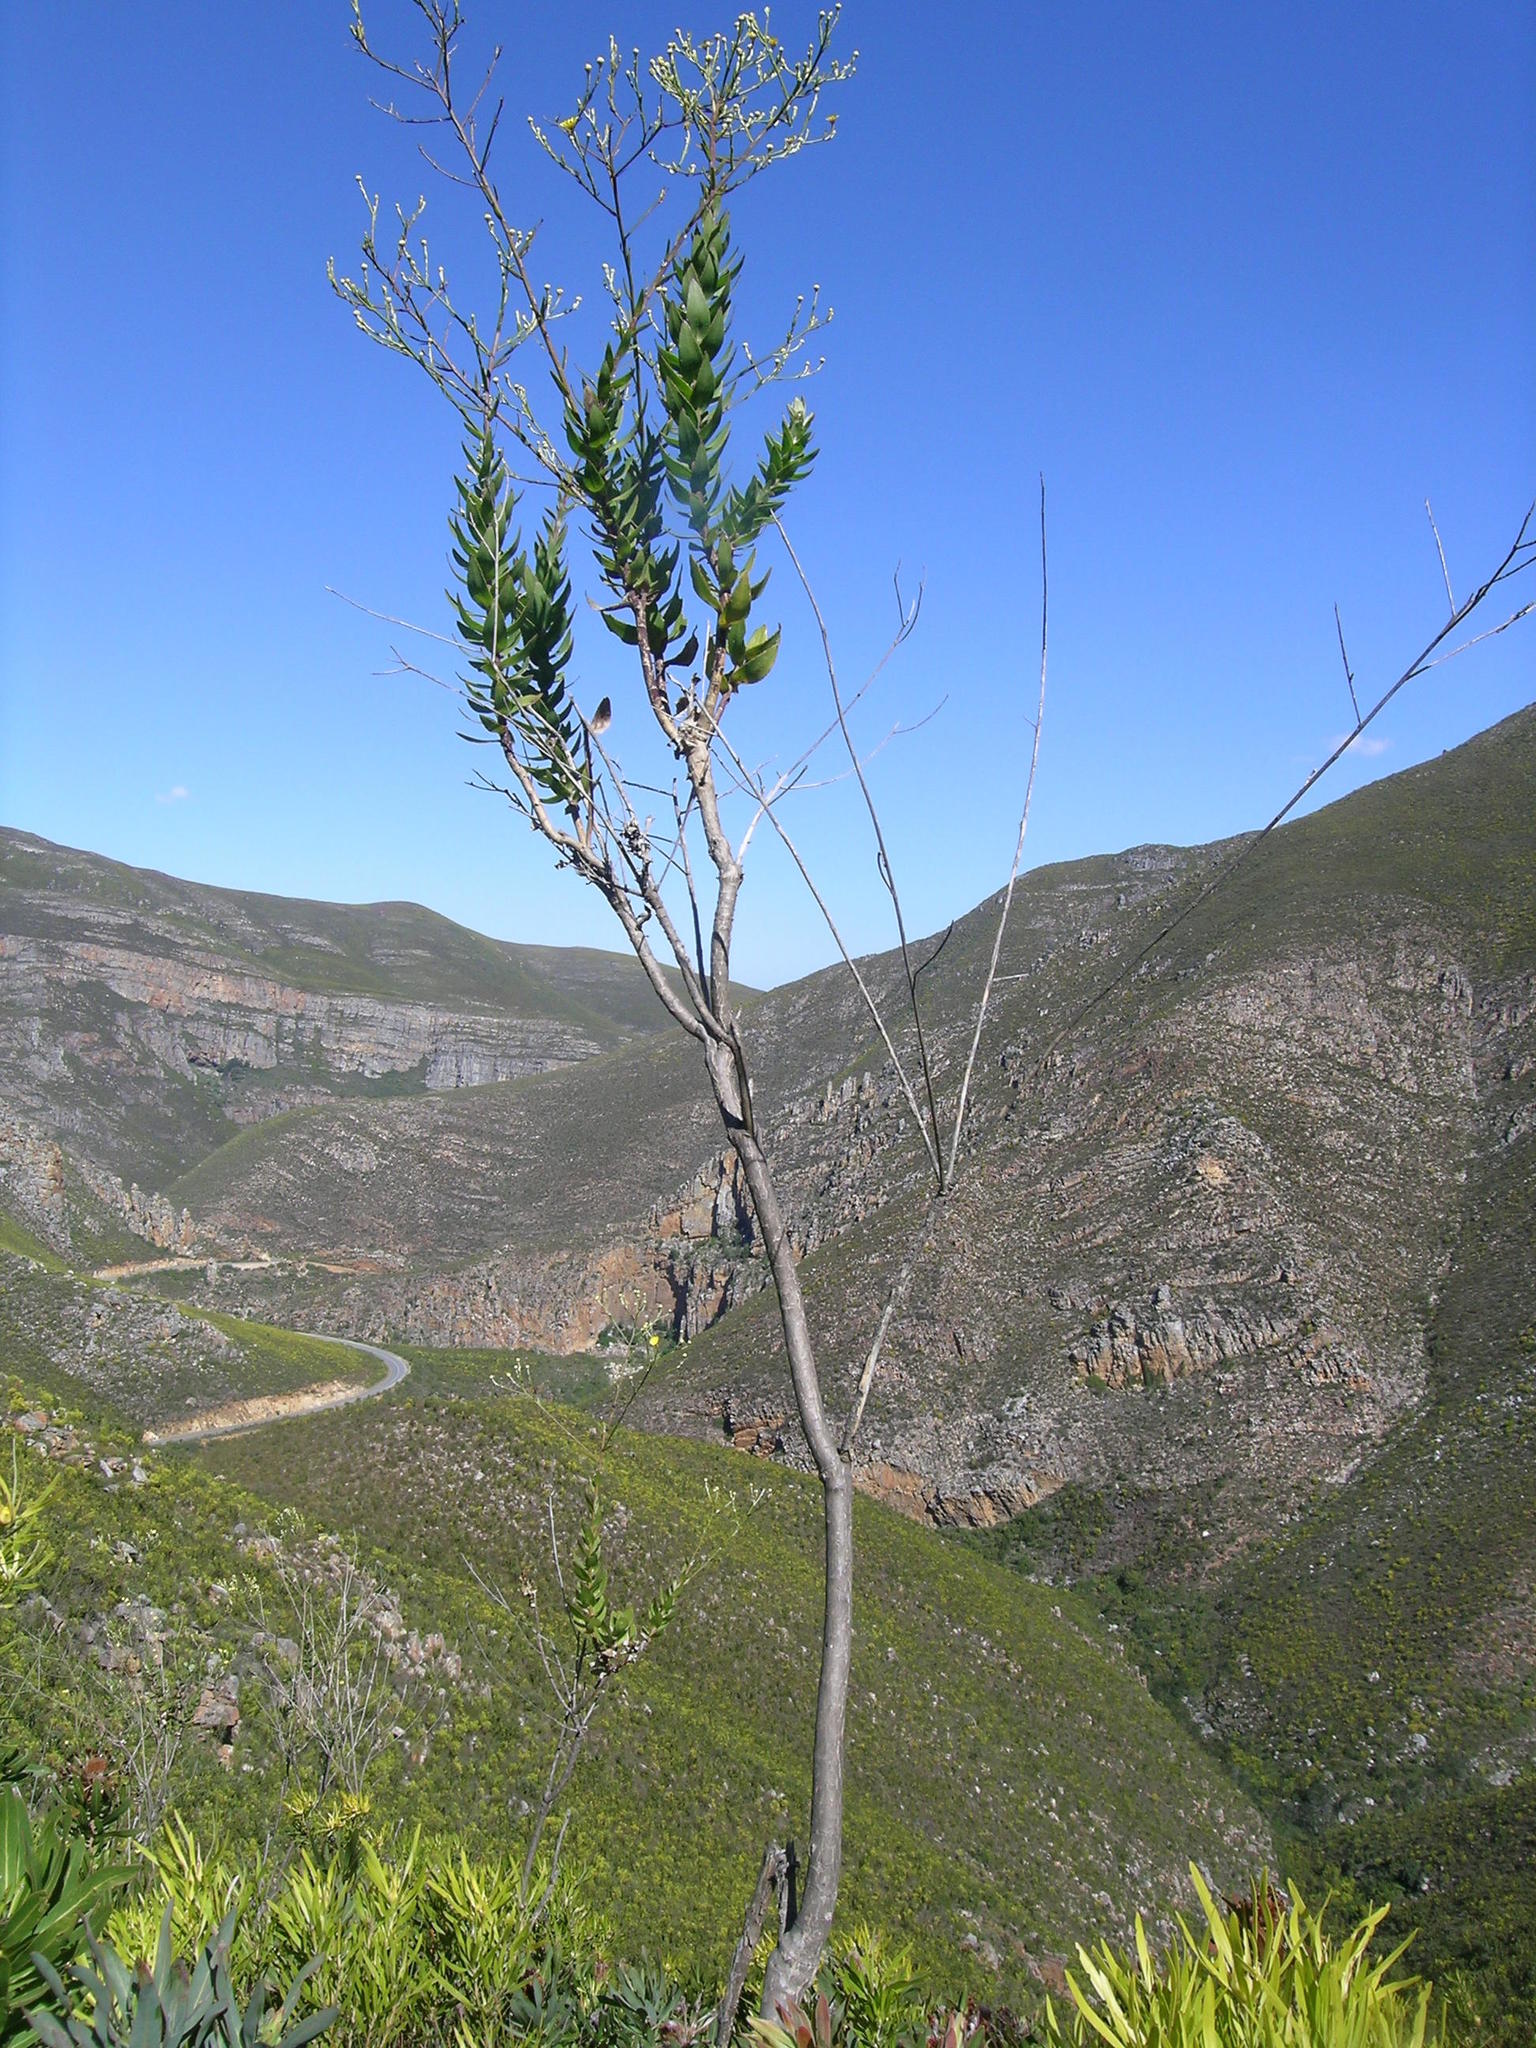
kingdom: Plantae
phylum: Tracheophyta
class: Magnoliopsida
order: Asterales
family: Asteraceae
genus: Osteospermum
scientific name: Osteospermum corymbosum
